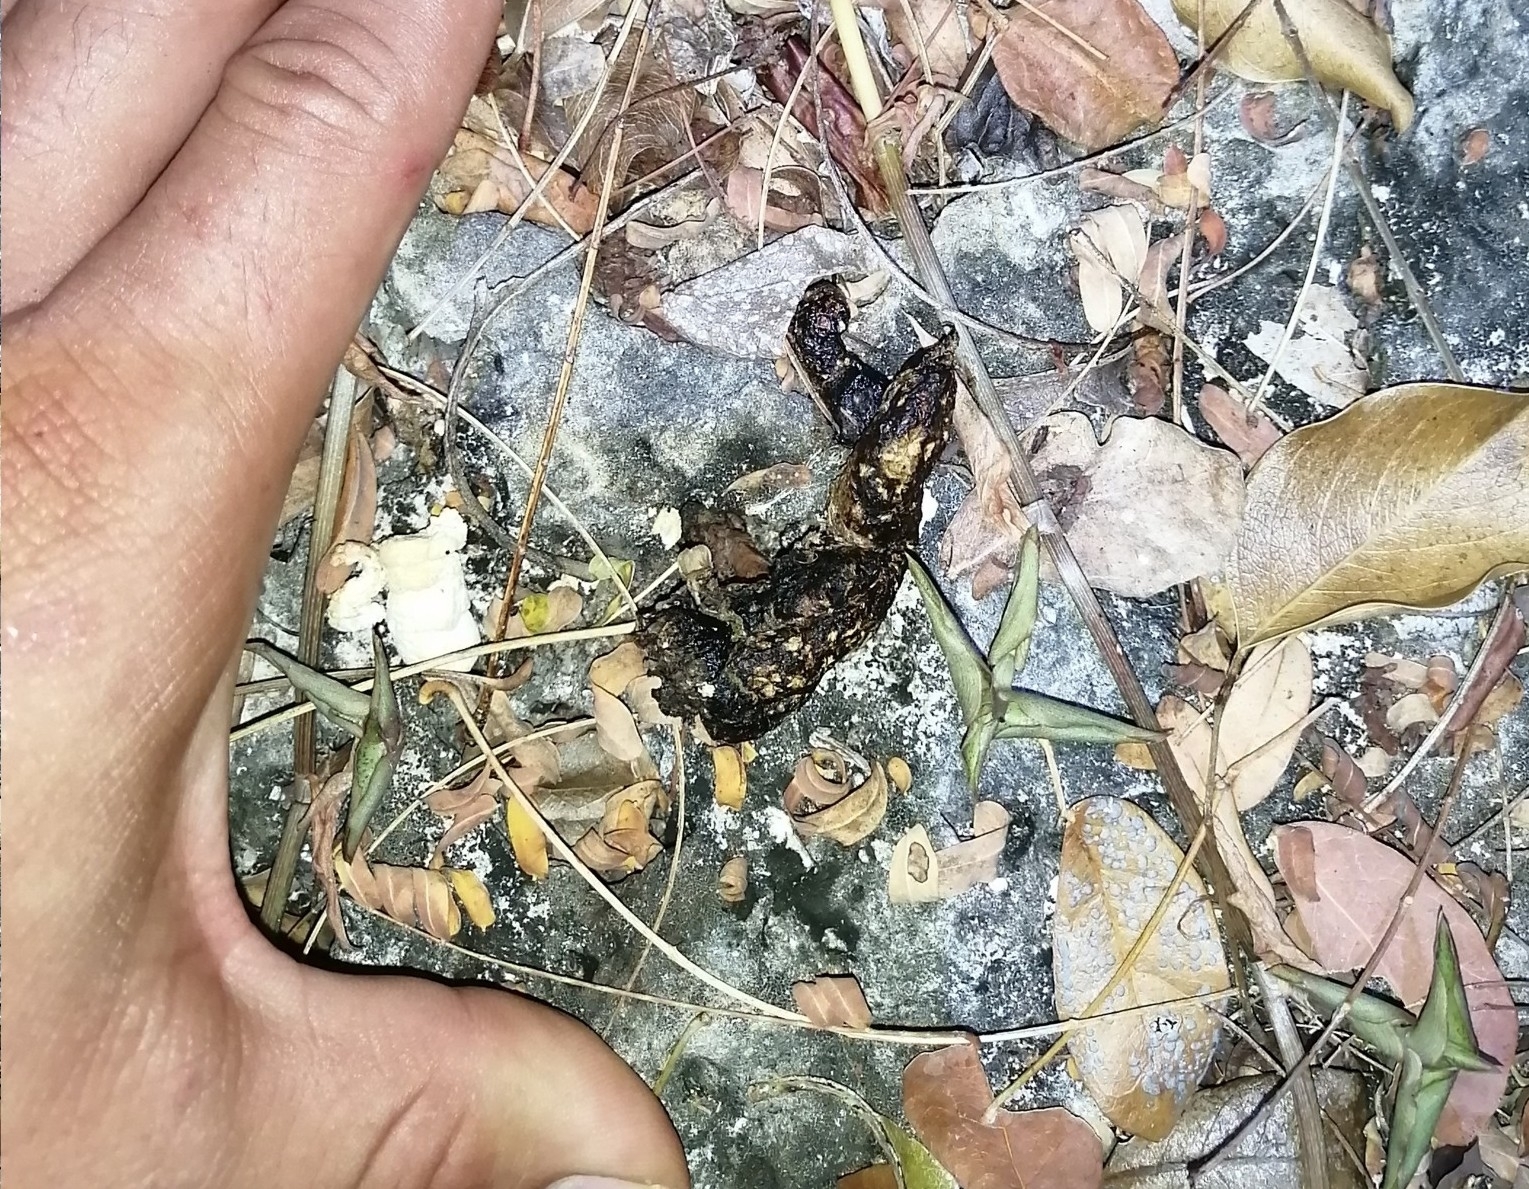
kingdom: Animalia
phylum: Chordata
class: Squamata
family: Iguanidae
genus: Ctenosaura
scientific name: Ctenosaura similis
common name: Black spiny-tailed iguana
